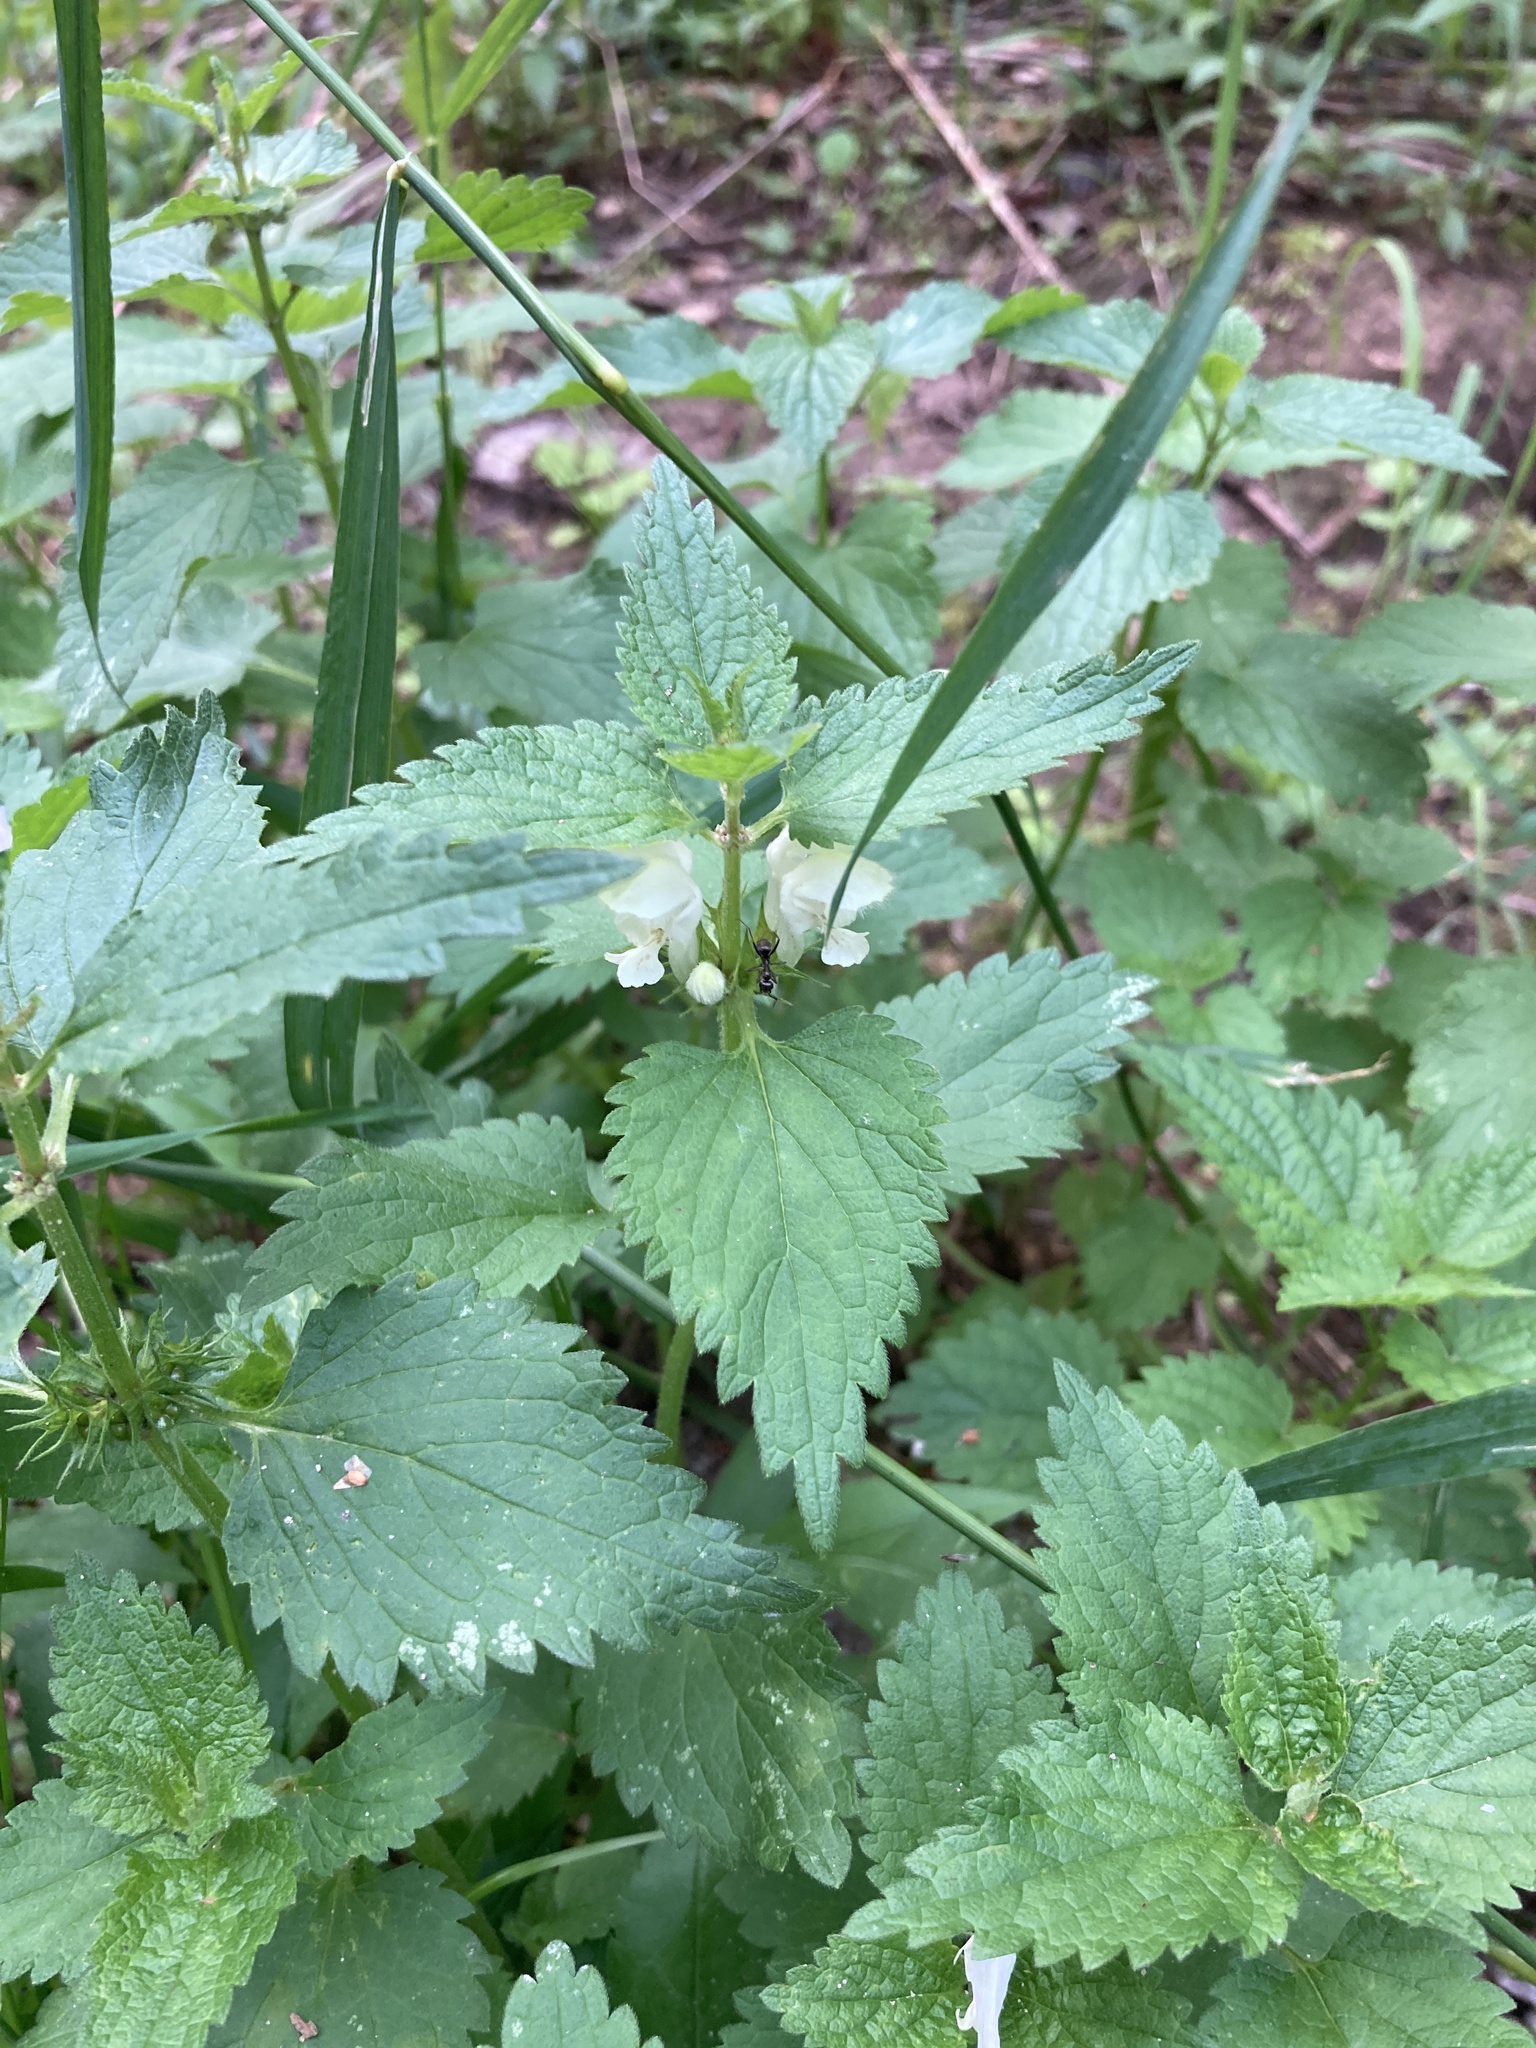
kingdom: Plantae
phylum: Tracheophyta
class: Magnoliopsida
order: Lamiales
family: Lamiaceae
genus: Lamium
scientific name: Lamium album
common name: White dead-nettle
